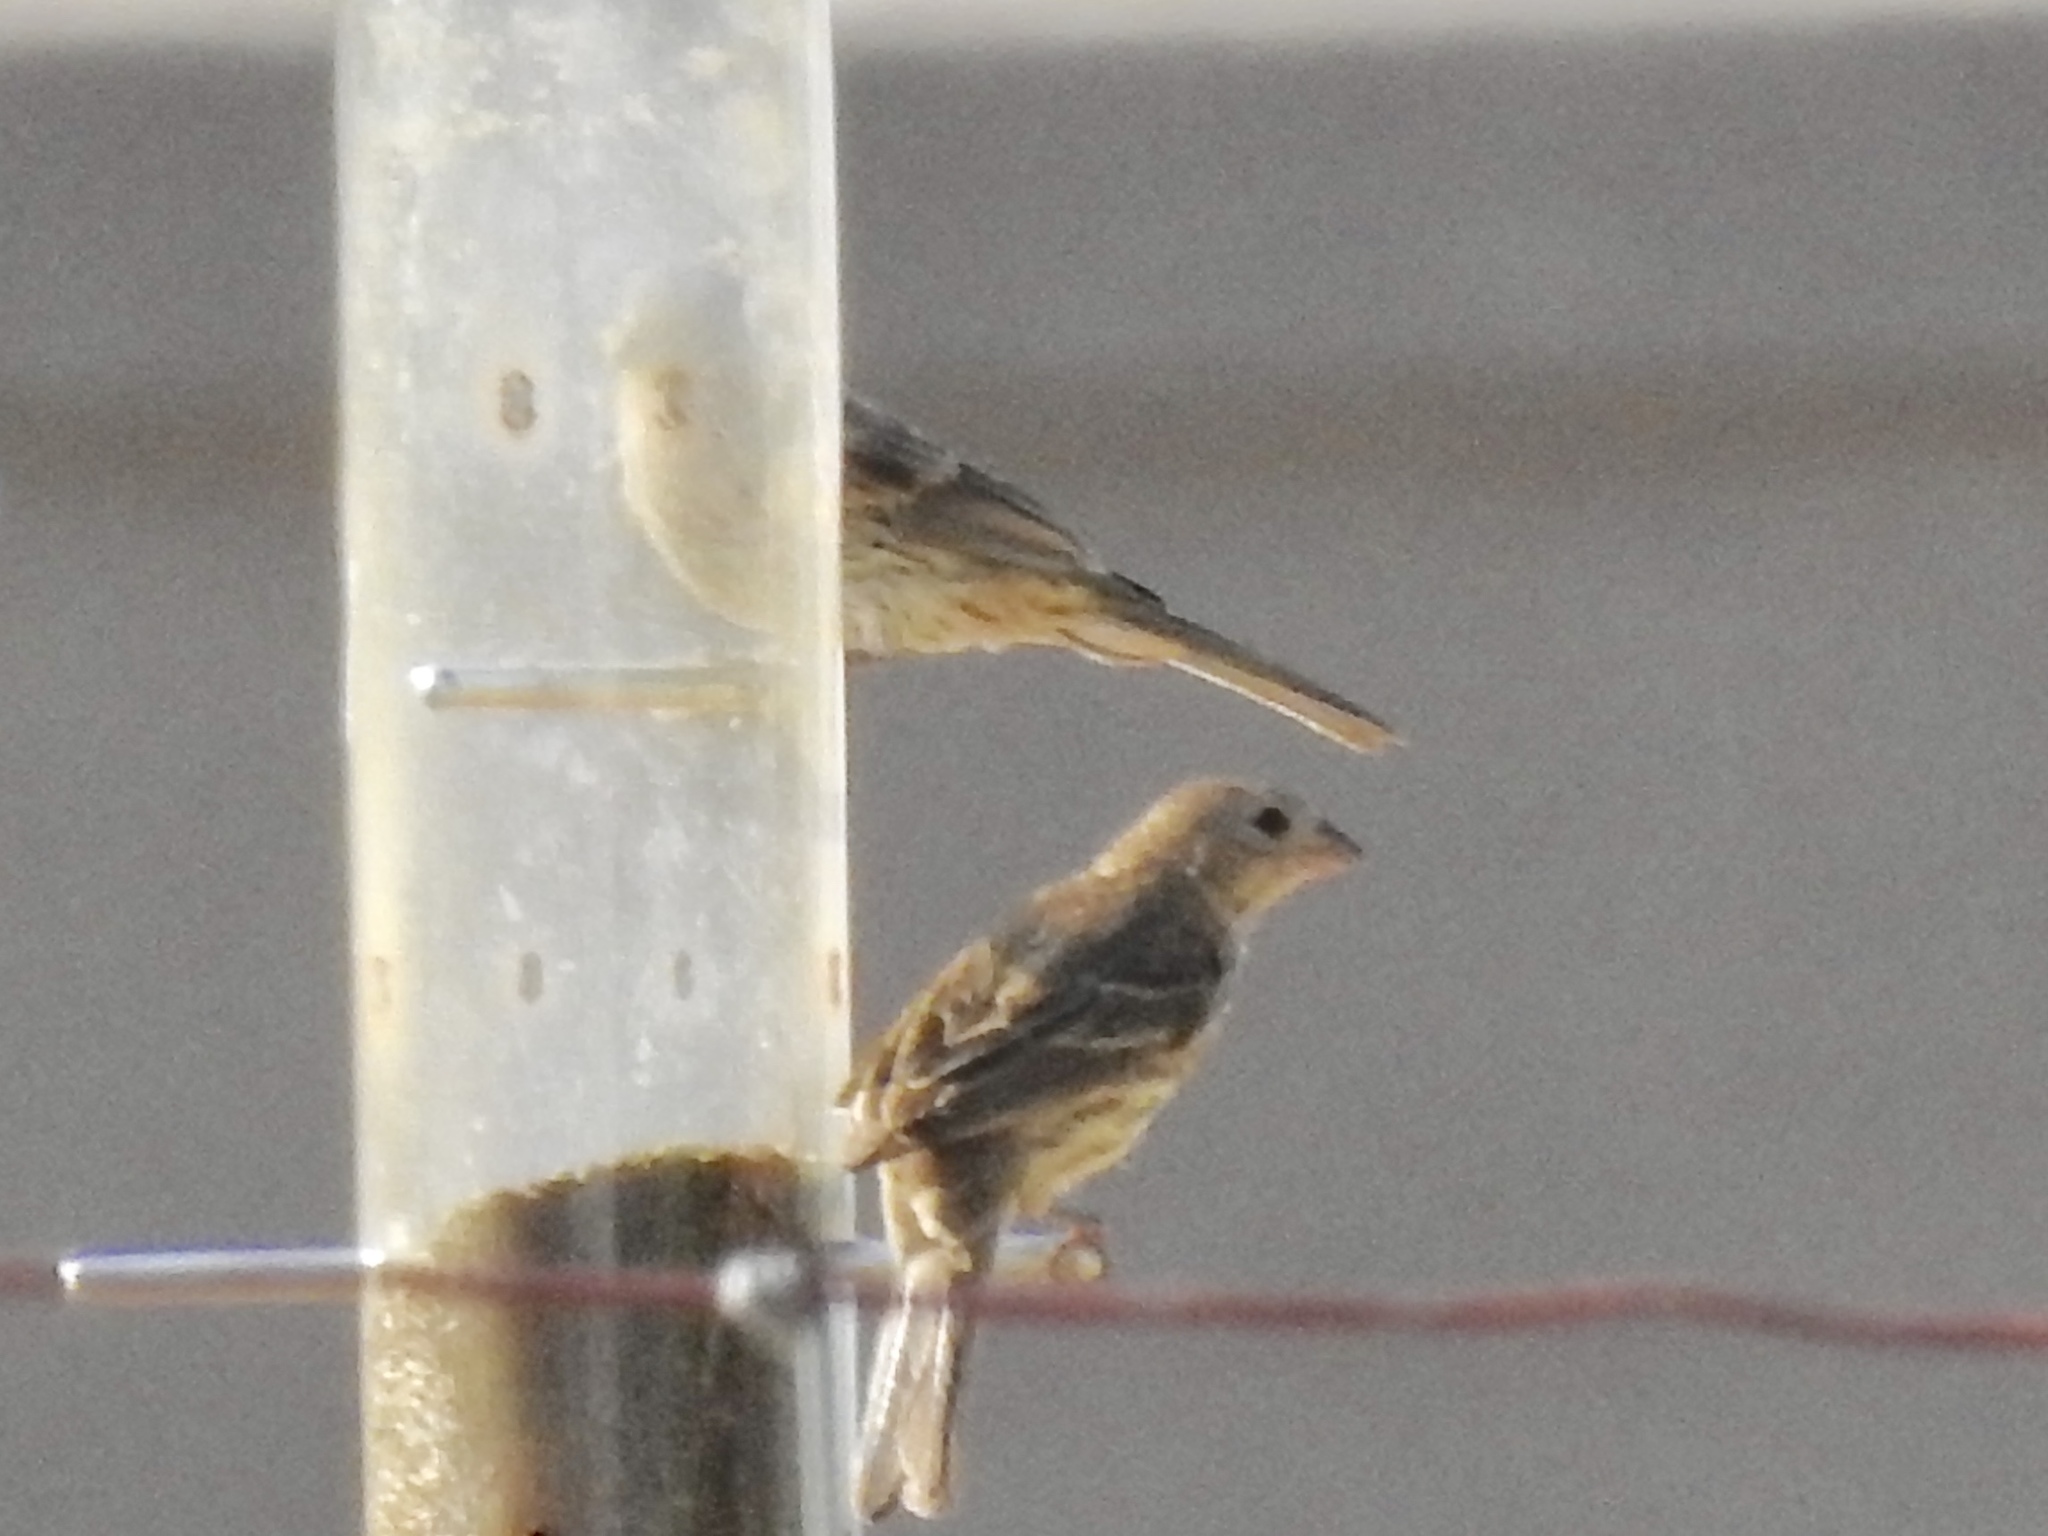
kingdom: Animalia
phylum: Chordata
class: Aves
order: Passeriformes
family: Fringillidae
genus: Haemorhous
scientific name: Haemorhous mexicanus
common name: House finch
